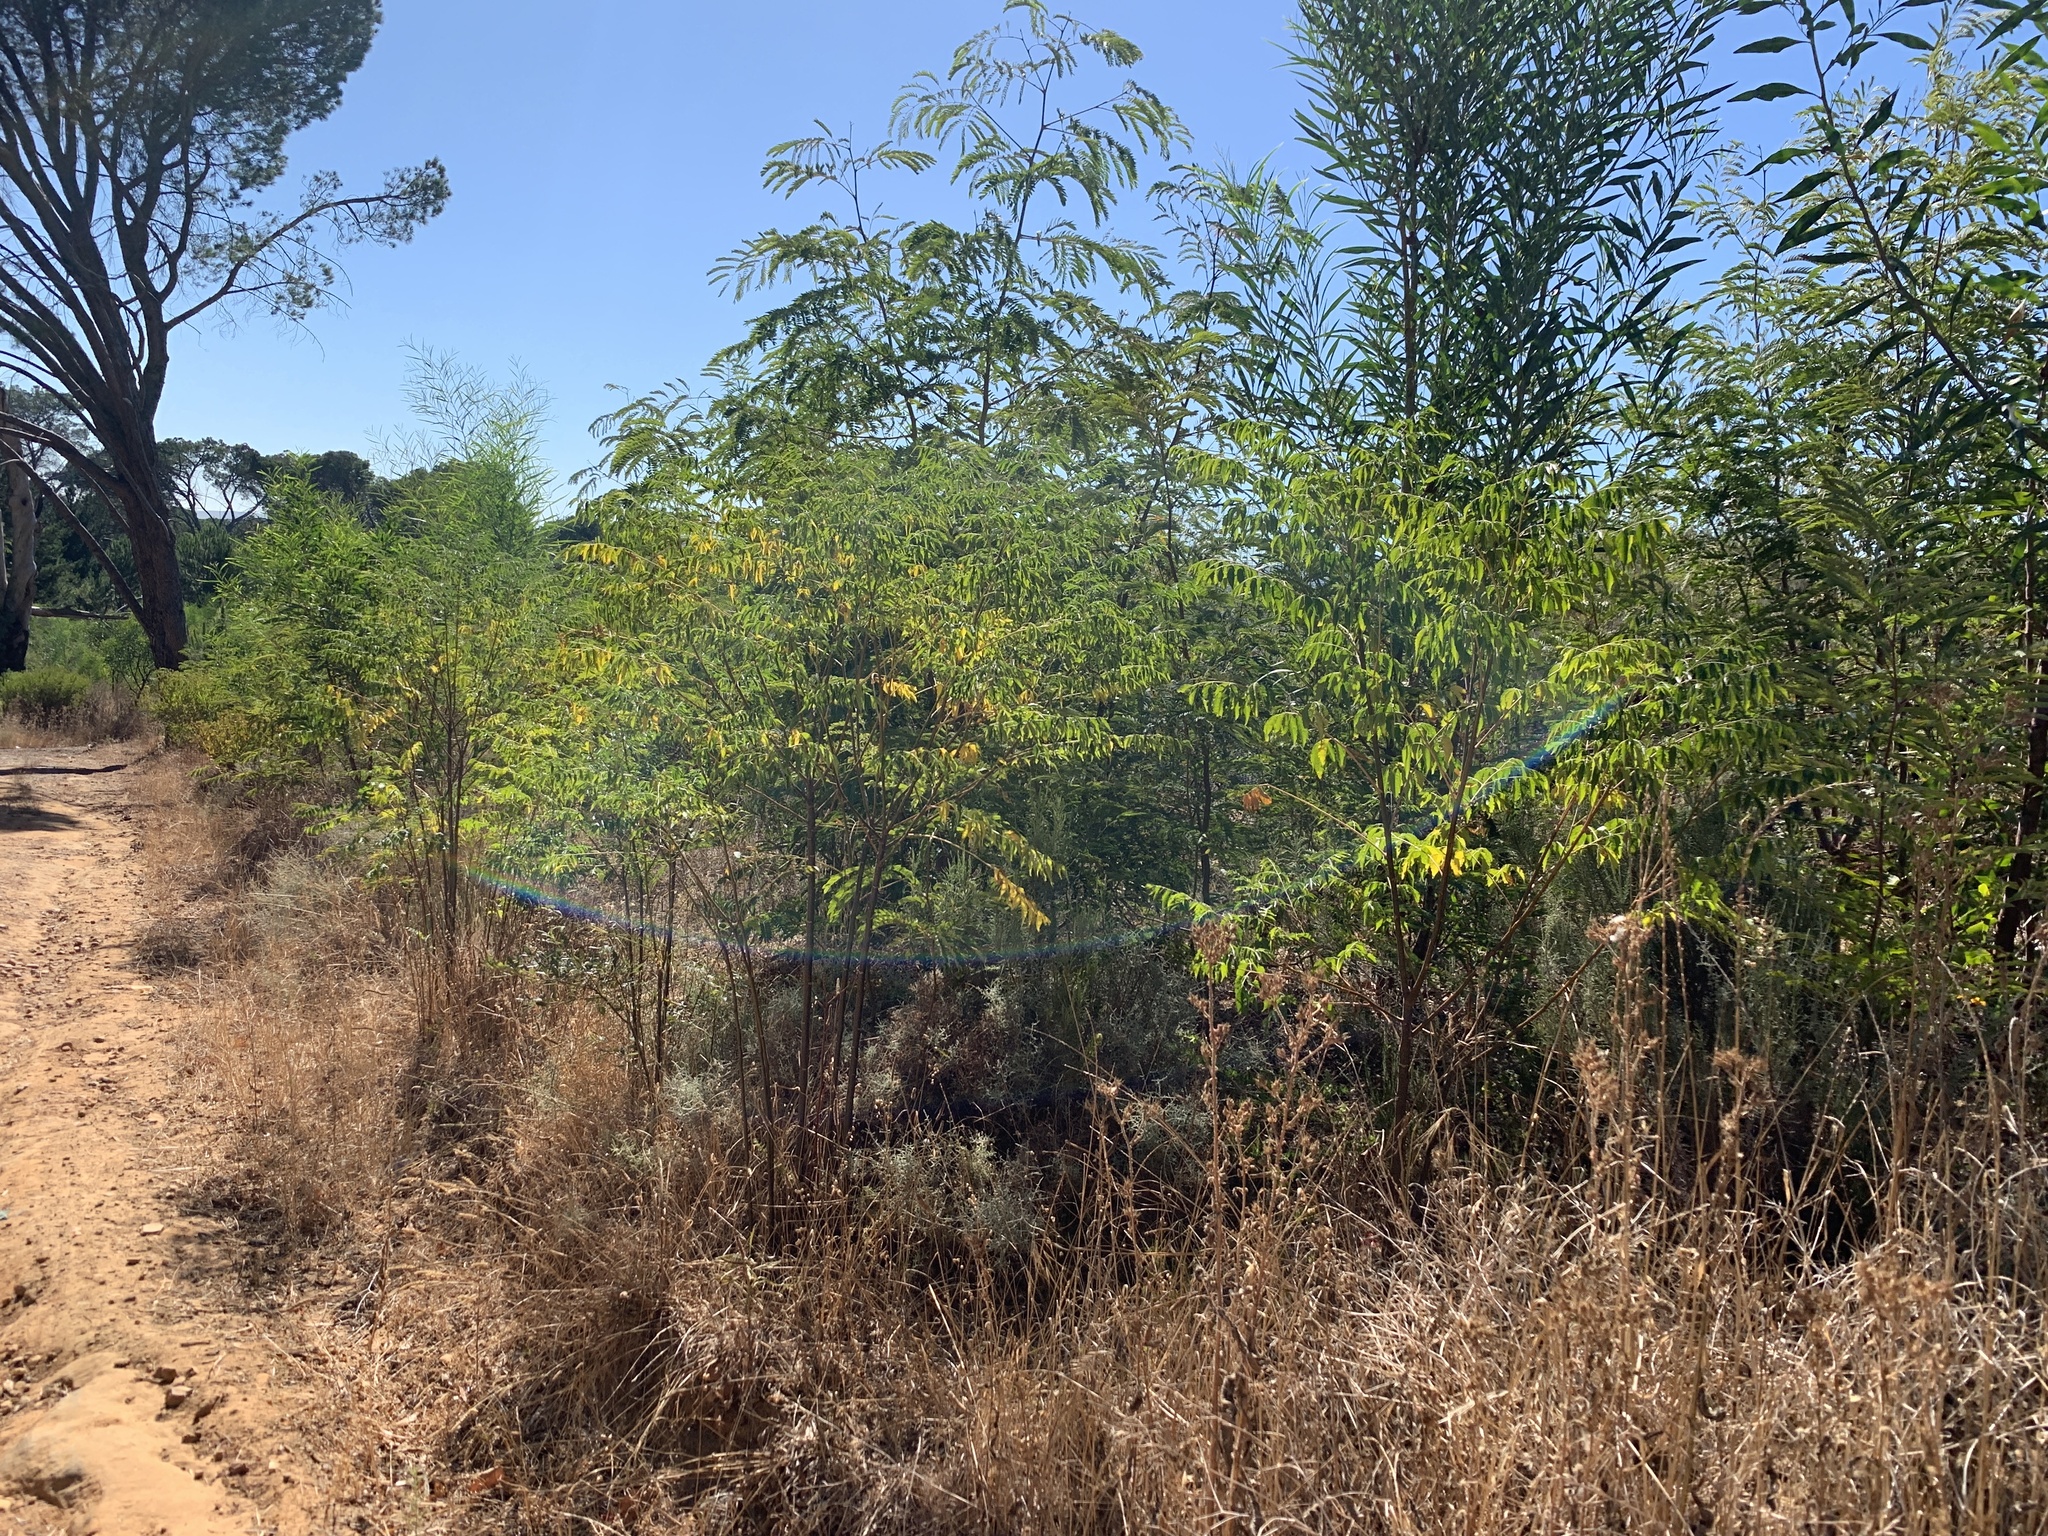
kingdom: Plantae
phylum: Tracheophyta
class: Magnoliopsida
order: Sapindales
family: Meliaceae
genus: Melia
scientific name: Melia azedarach
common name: Chinaberrytree
